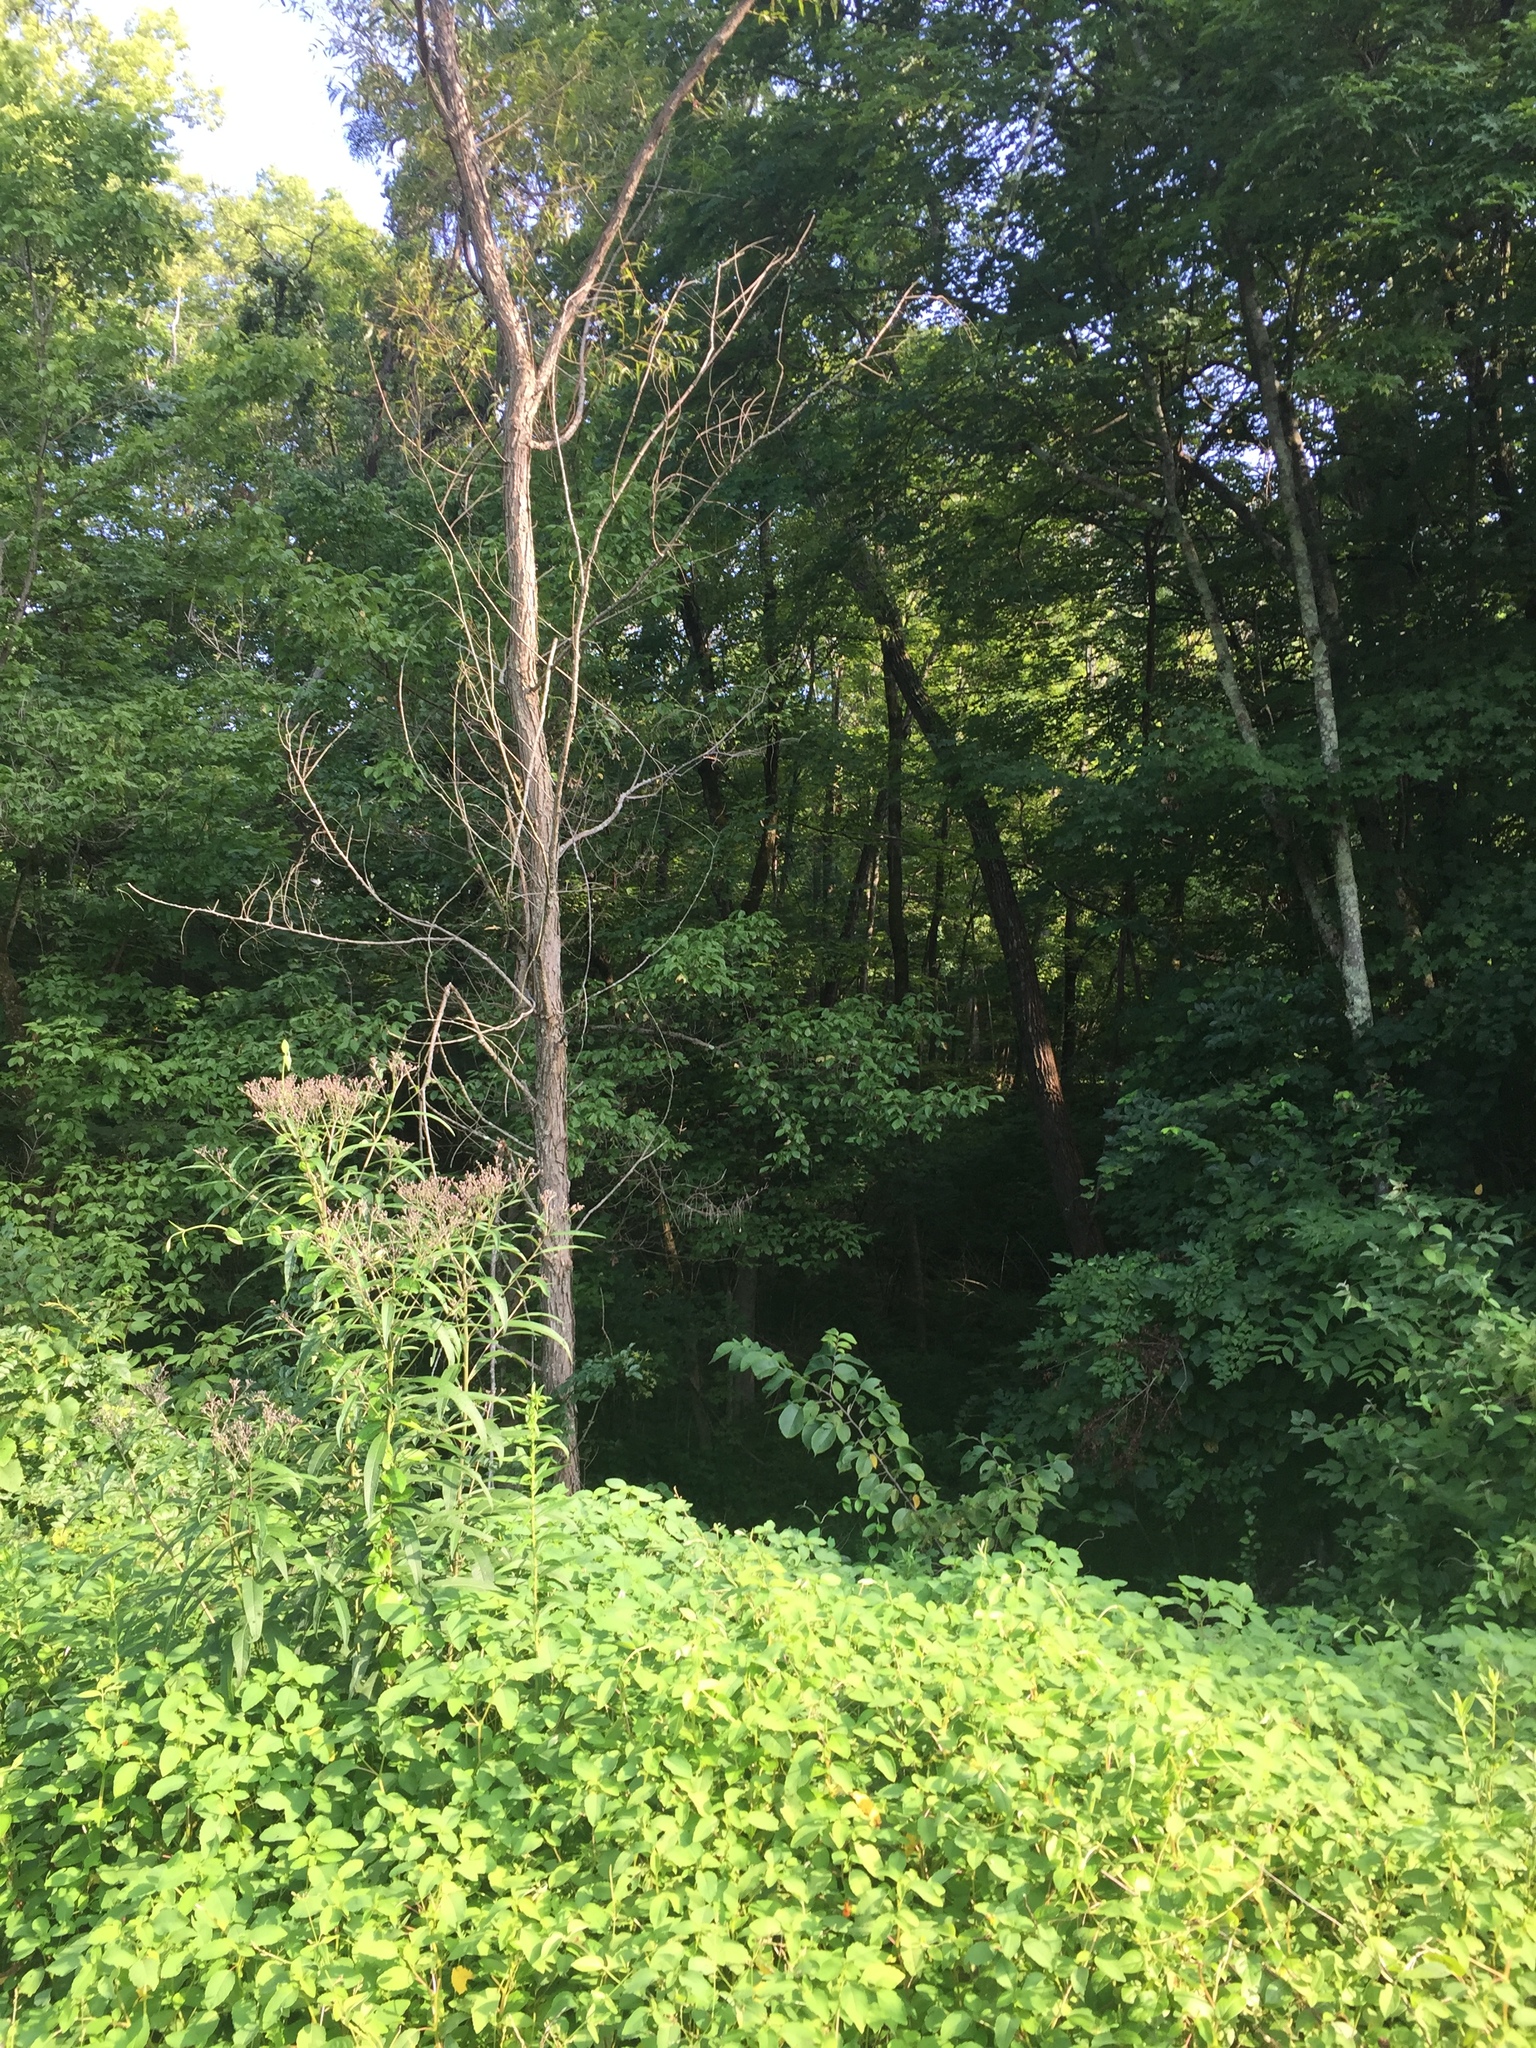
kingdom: Plantae
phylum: Tracheophyta
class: Magnoliopsida
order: Caryophyllales
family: Polygonaceae
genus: Reynoutria
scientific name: Reynoutria japonica
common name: Japanese knotweed
